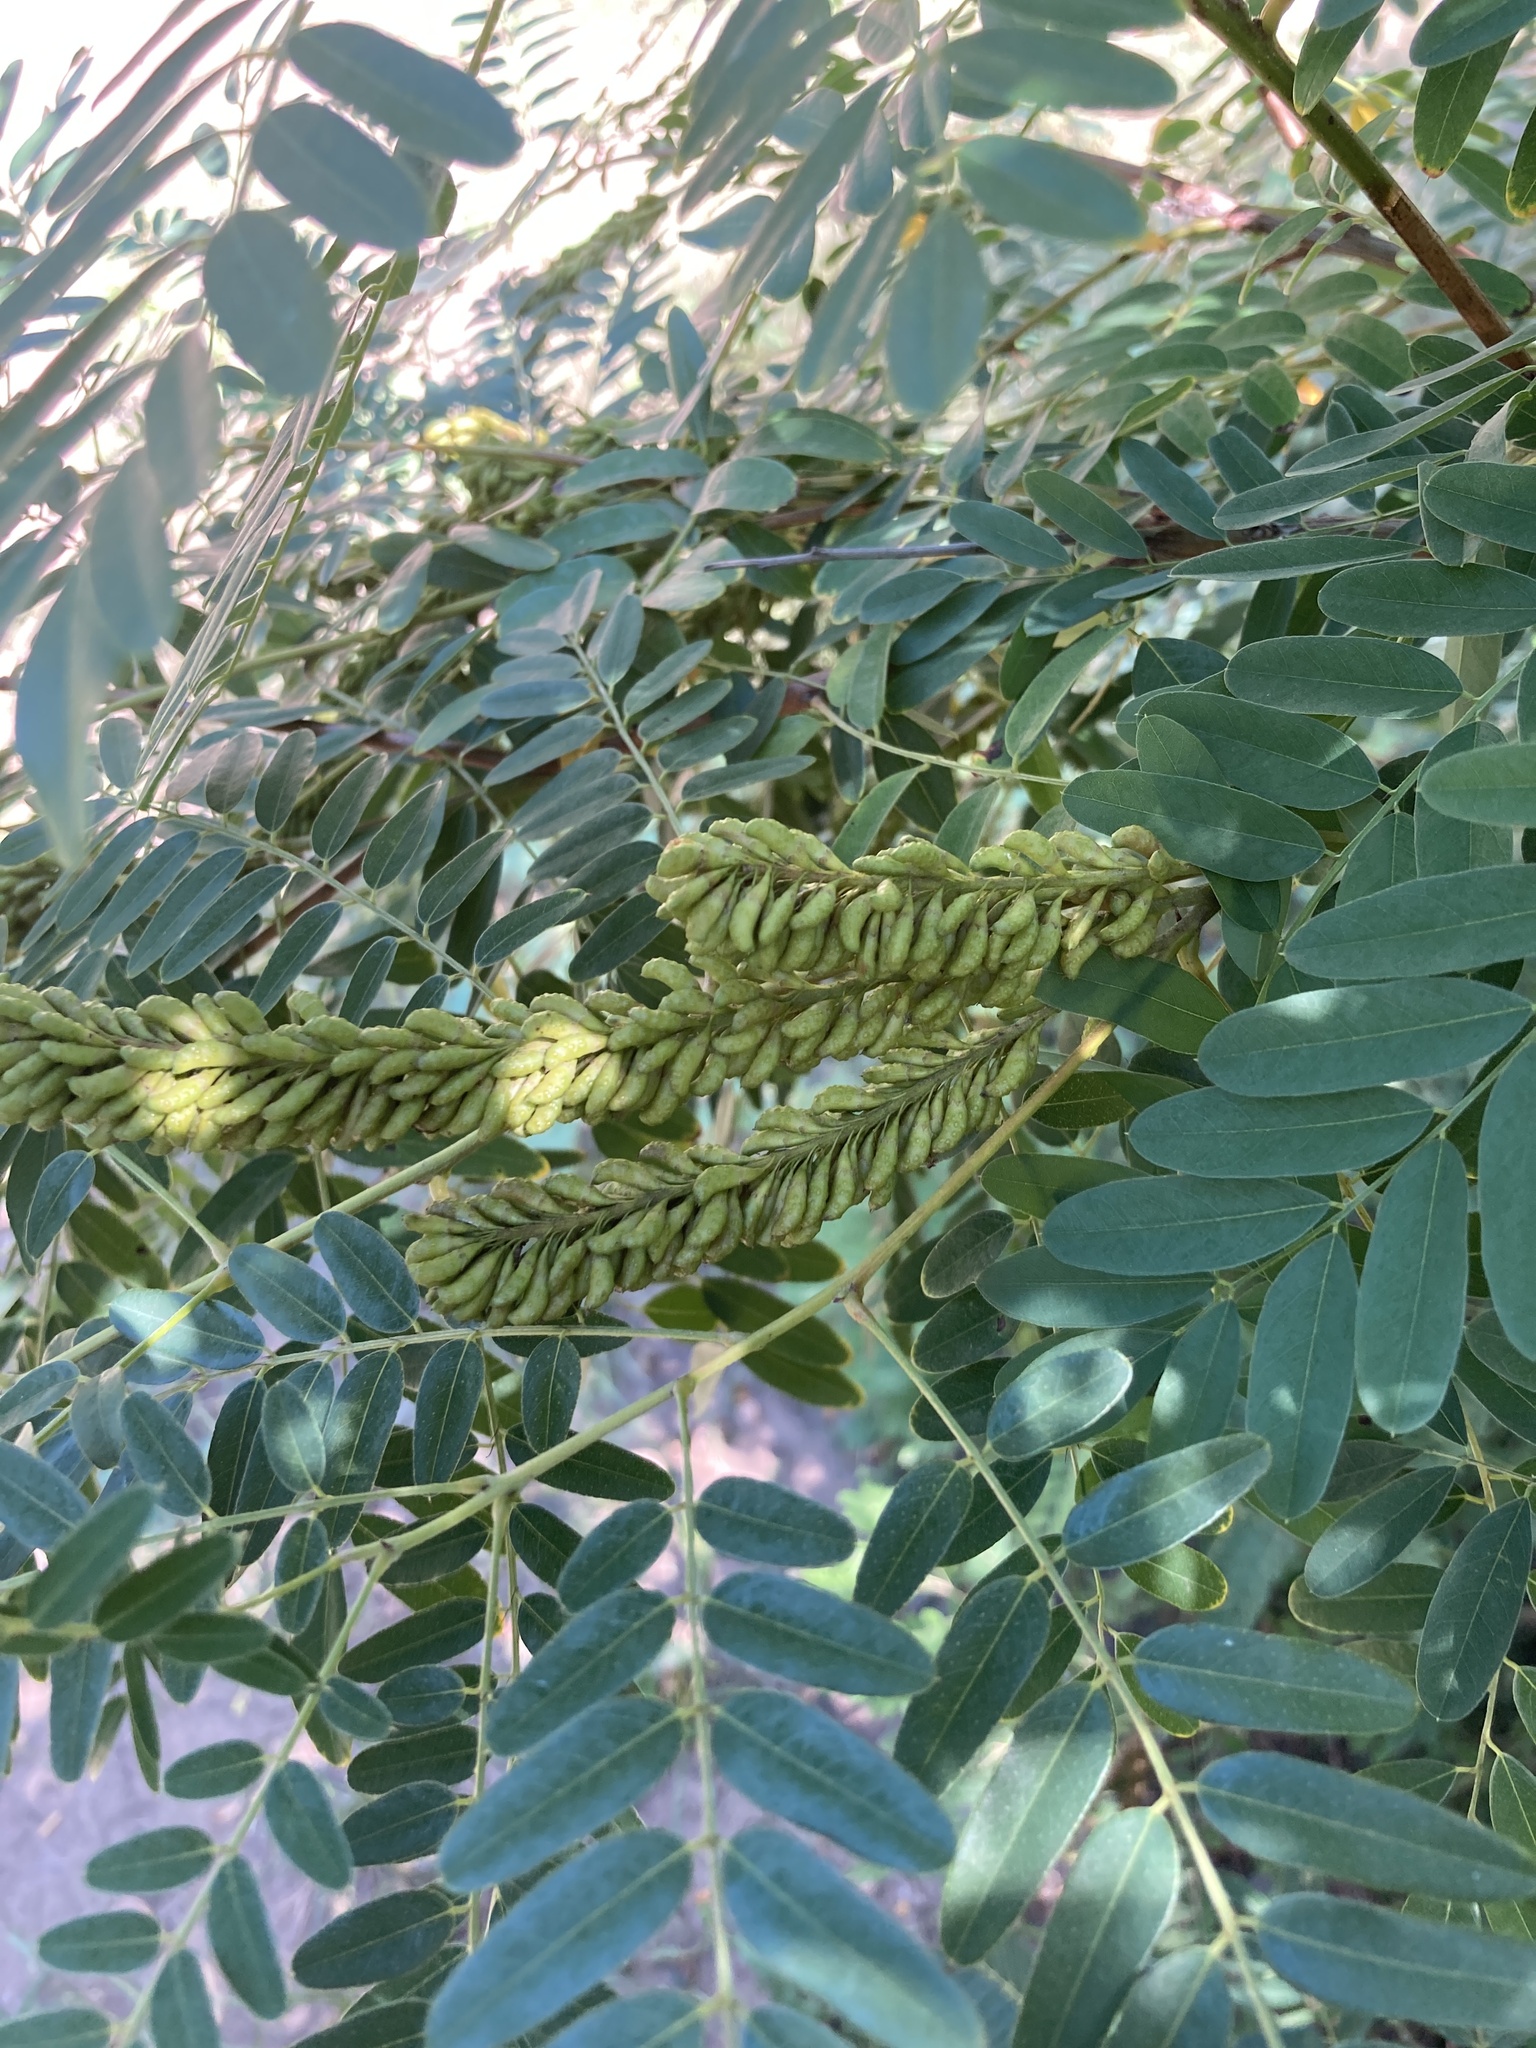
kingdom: Plantae
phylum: Tracheophyta
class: Magnoliopsida
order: Fabales
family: Fabaceae
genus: Amorpha
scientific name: Amorpha fruticosa
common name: False indigo
